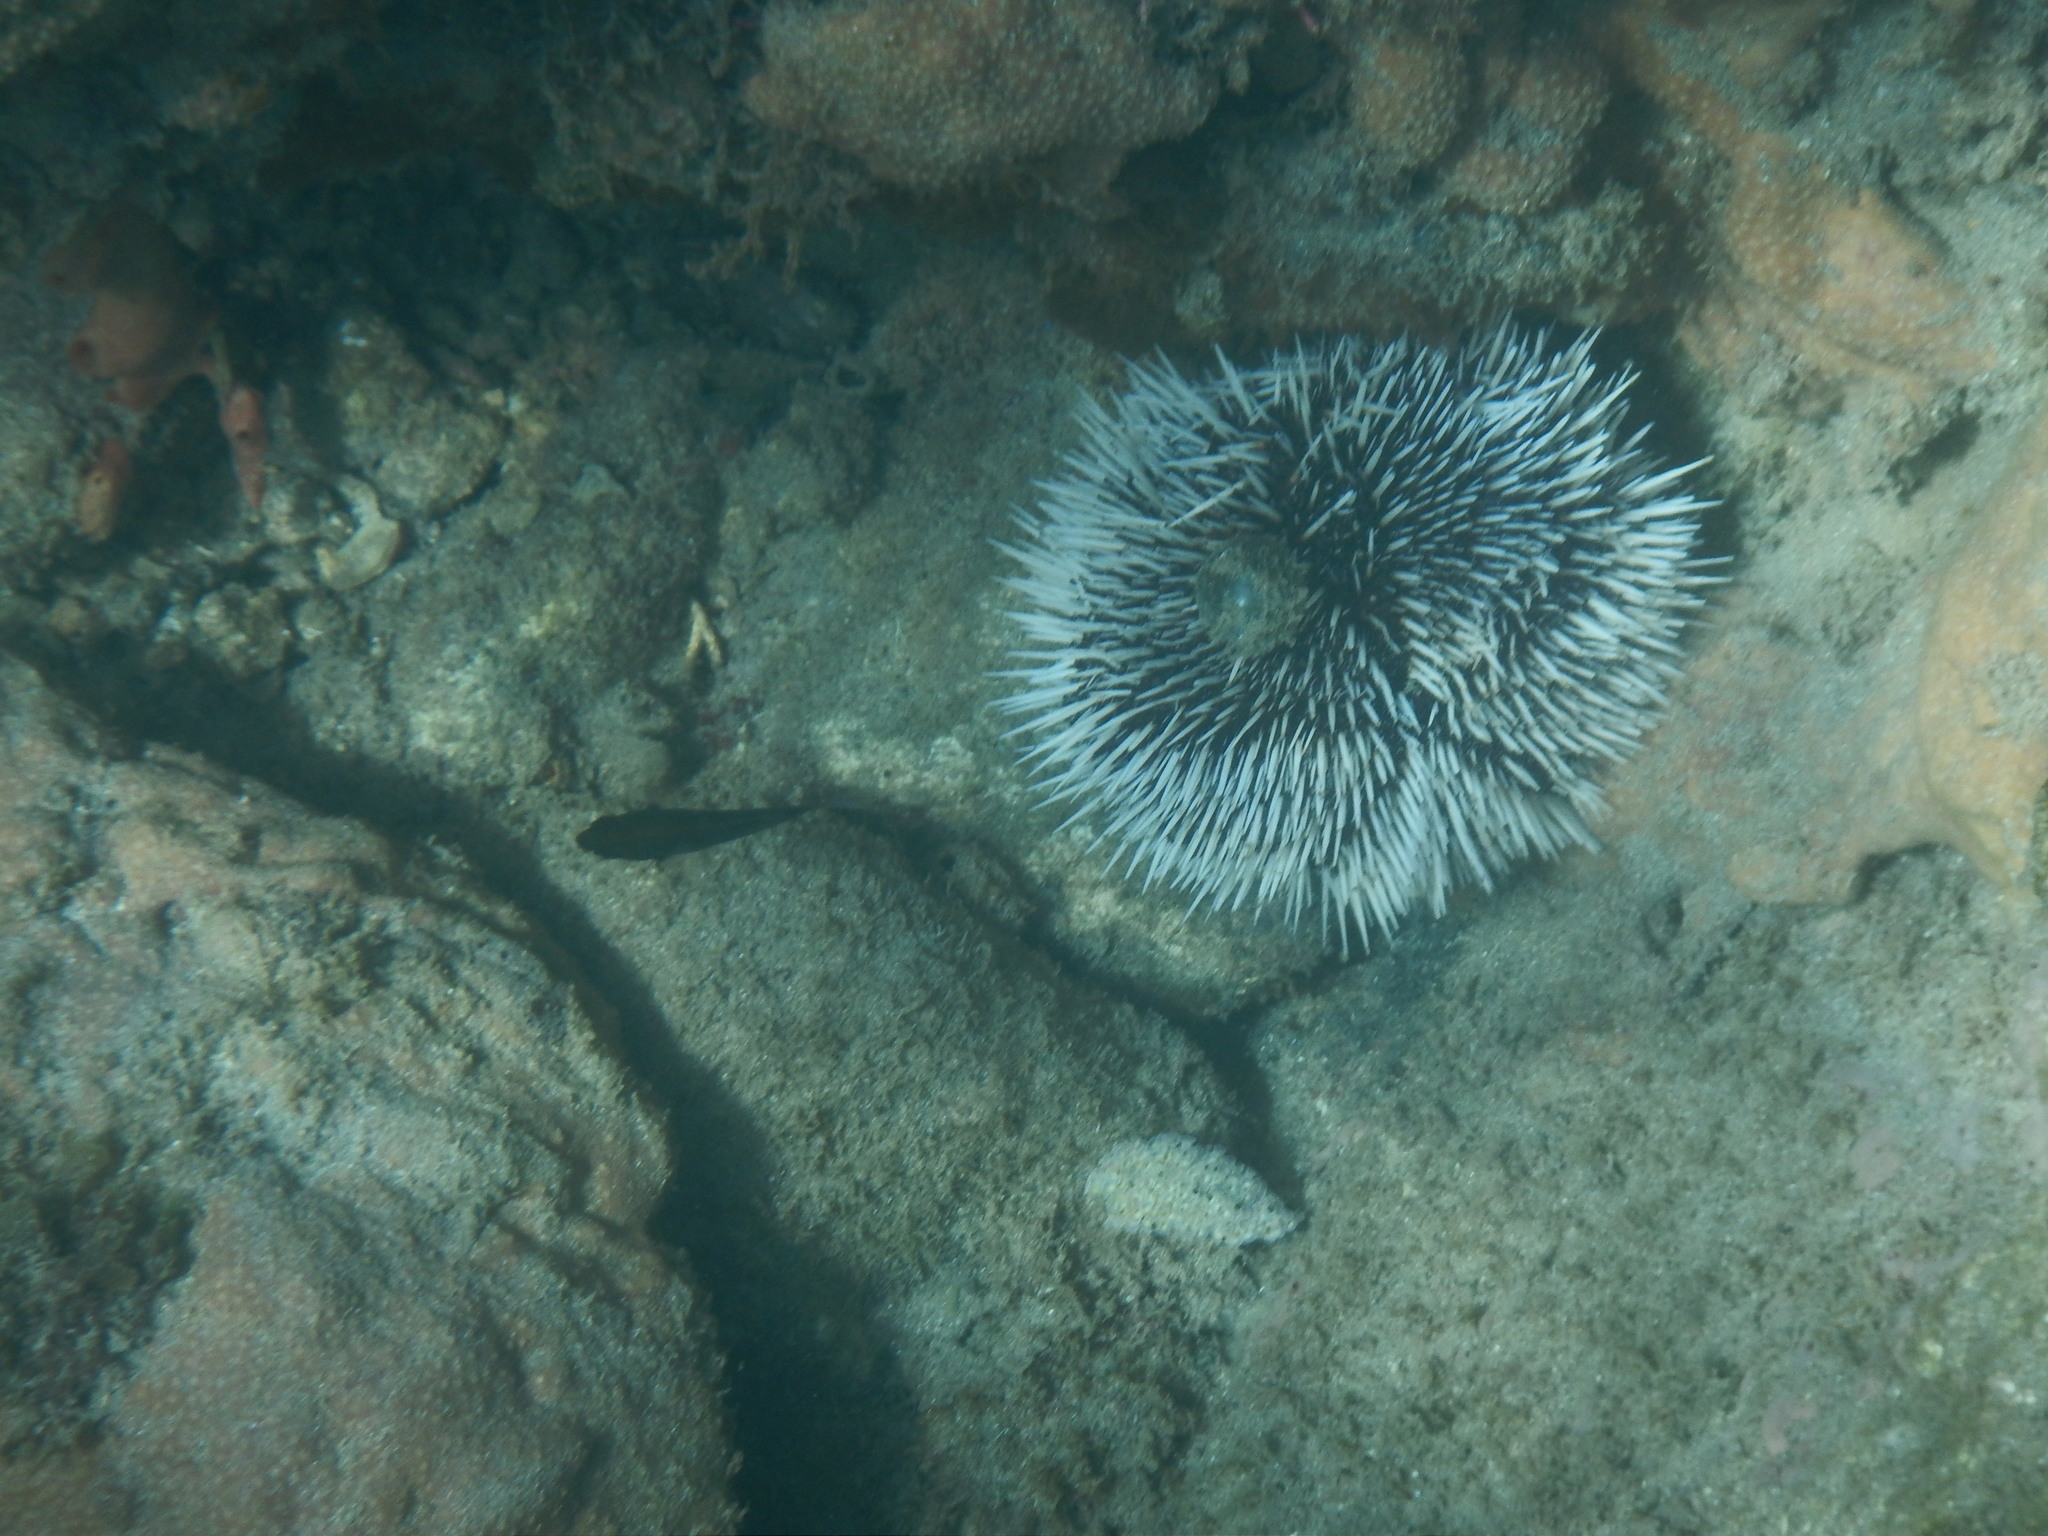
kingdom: Animalia
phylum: Echinodermata
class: Echinoidea
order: Camarodonta
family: Toxopneustidae
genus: Tripneustes
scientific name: Tripneustes ventricosus
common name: West indian sea egg
